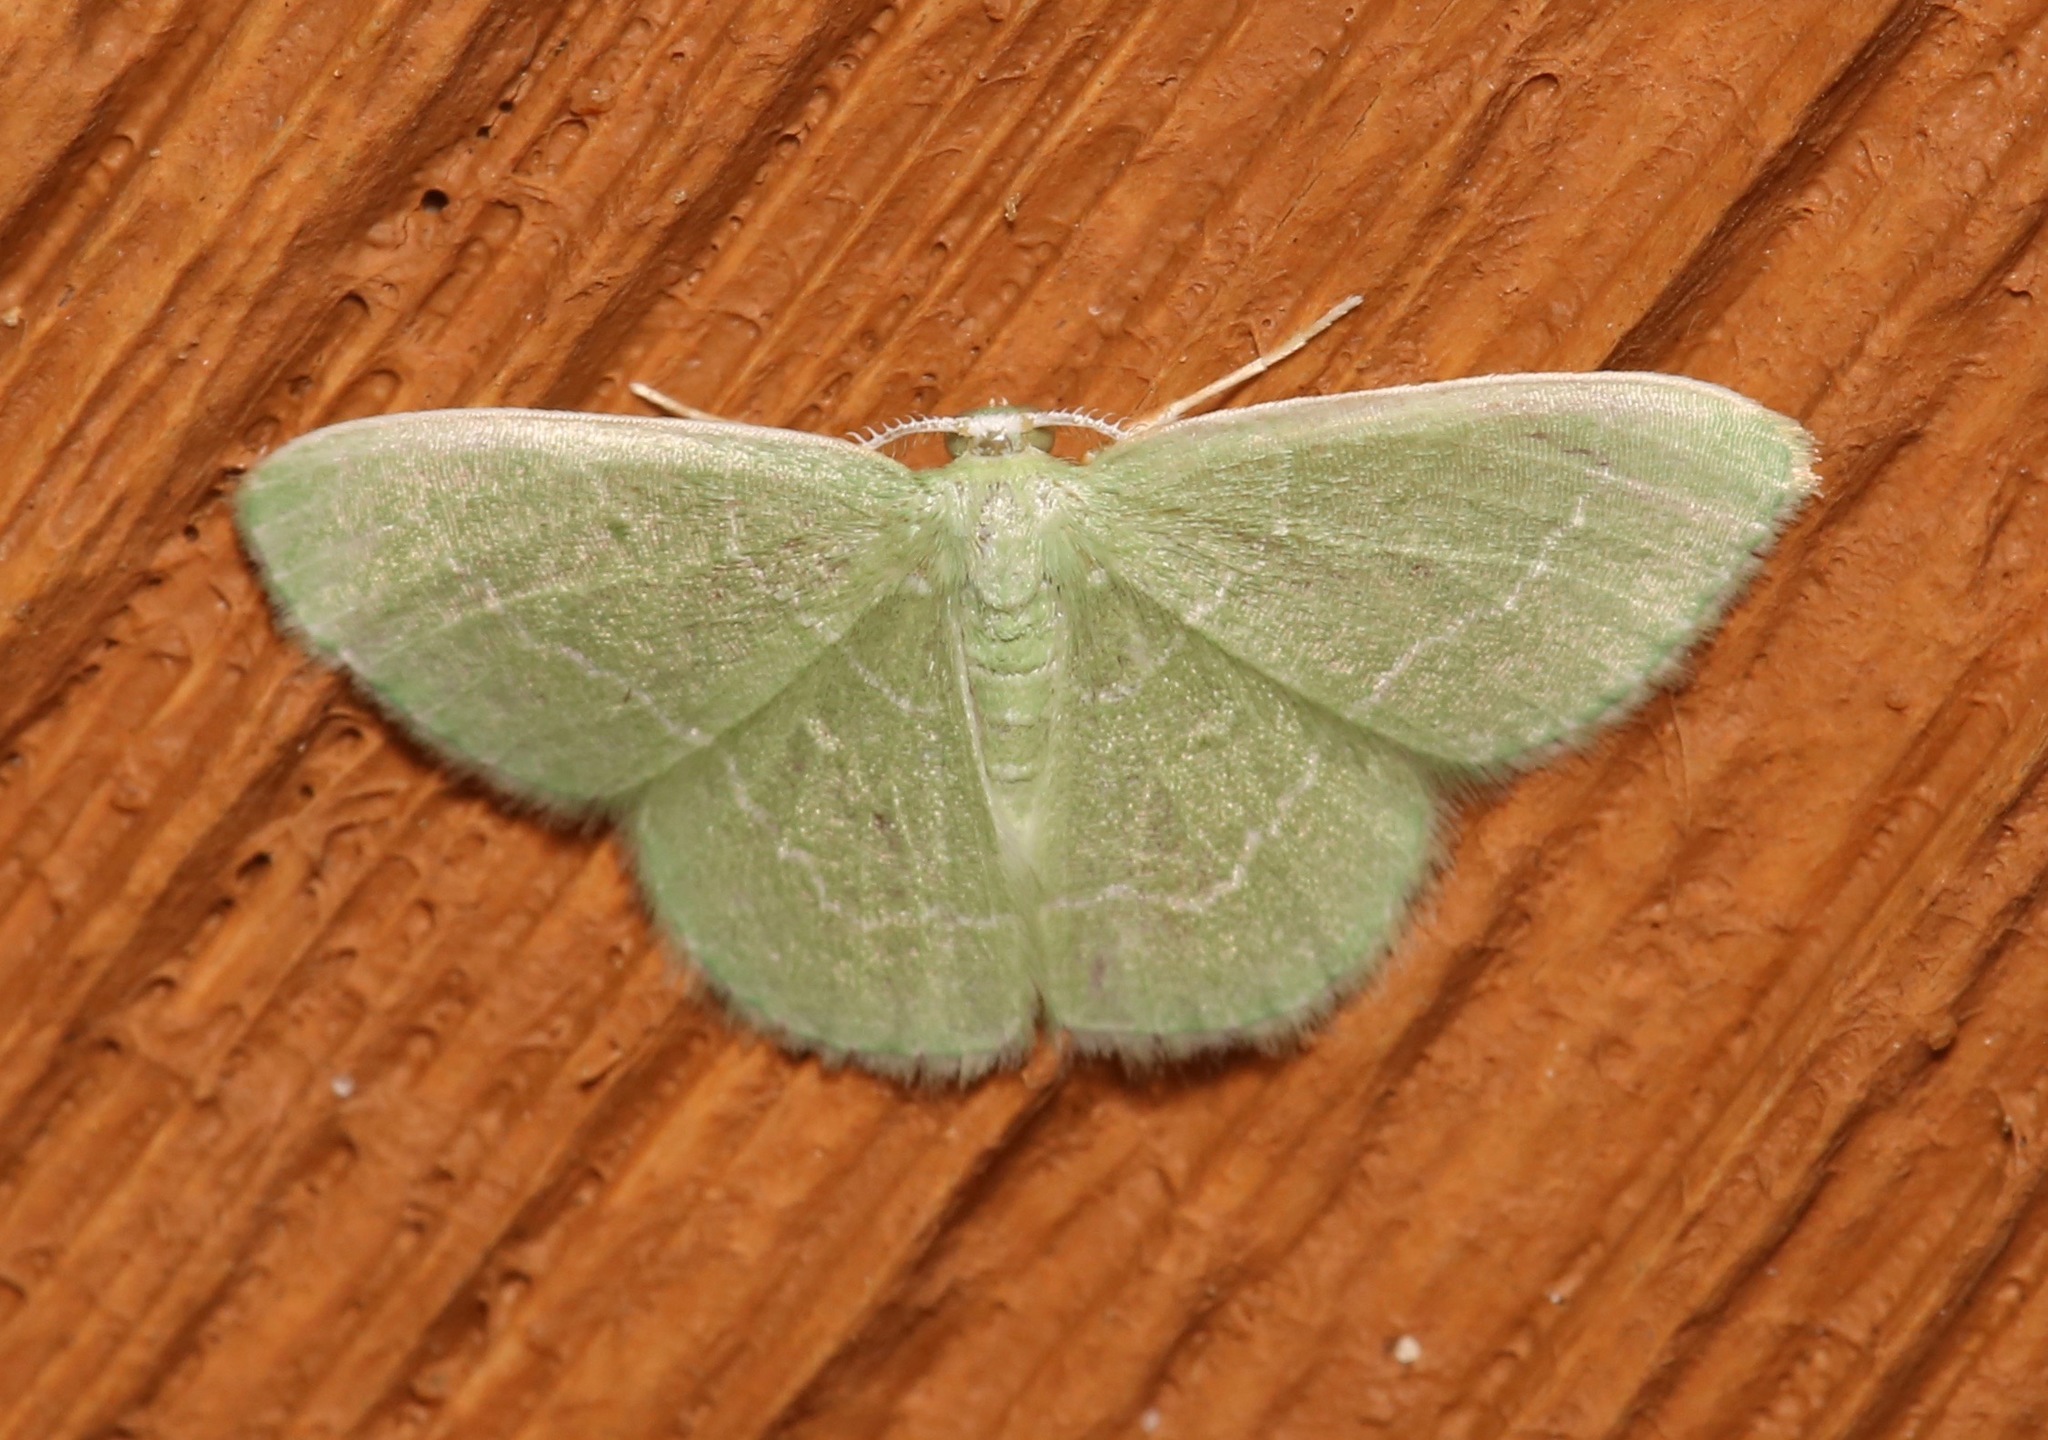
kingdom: Animalia
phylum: Arthropoda
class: Insecta
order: Lepidoptera
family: Geometridae
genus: Nemoria
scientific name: Nemoria elfa
